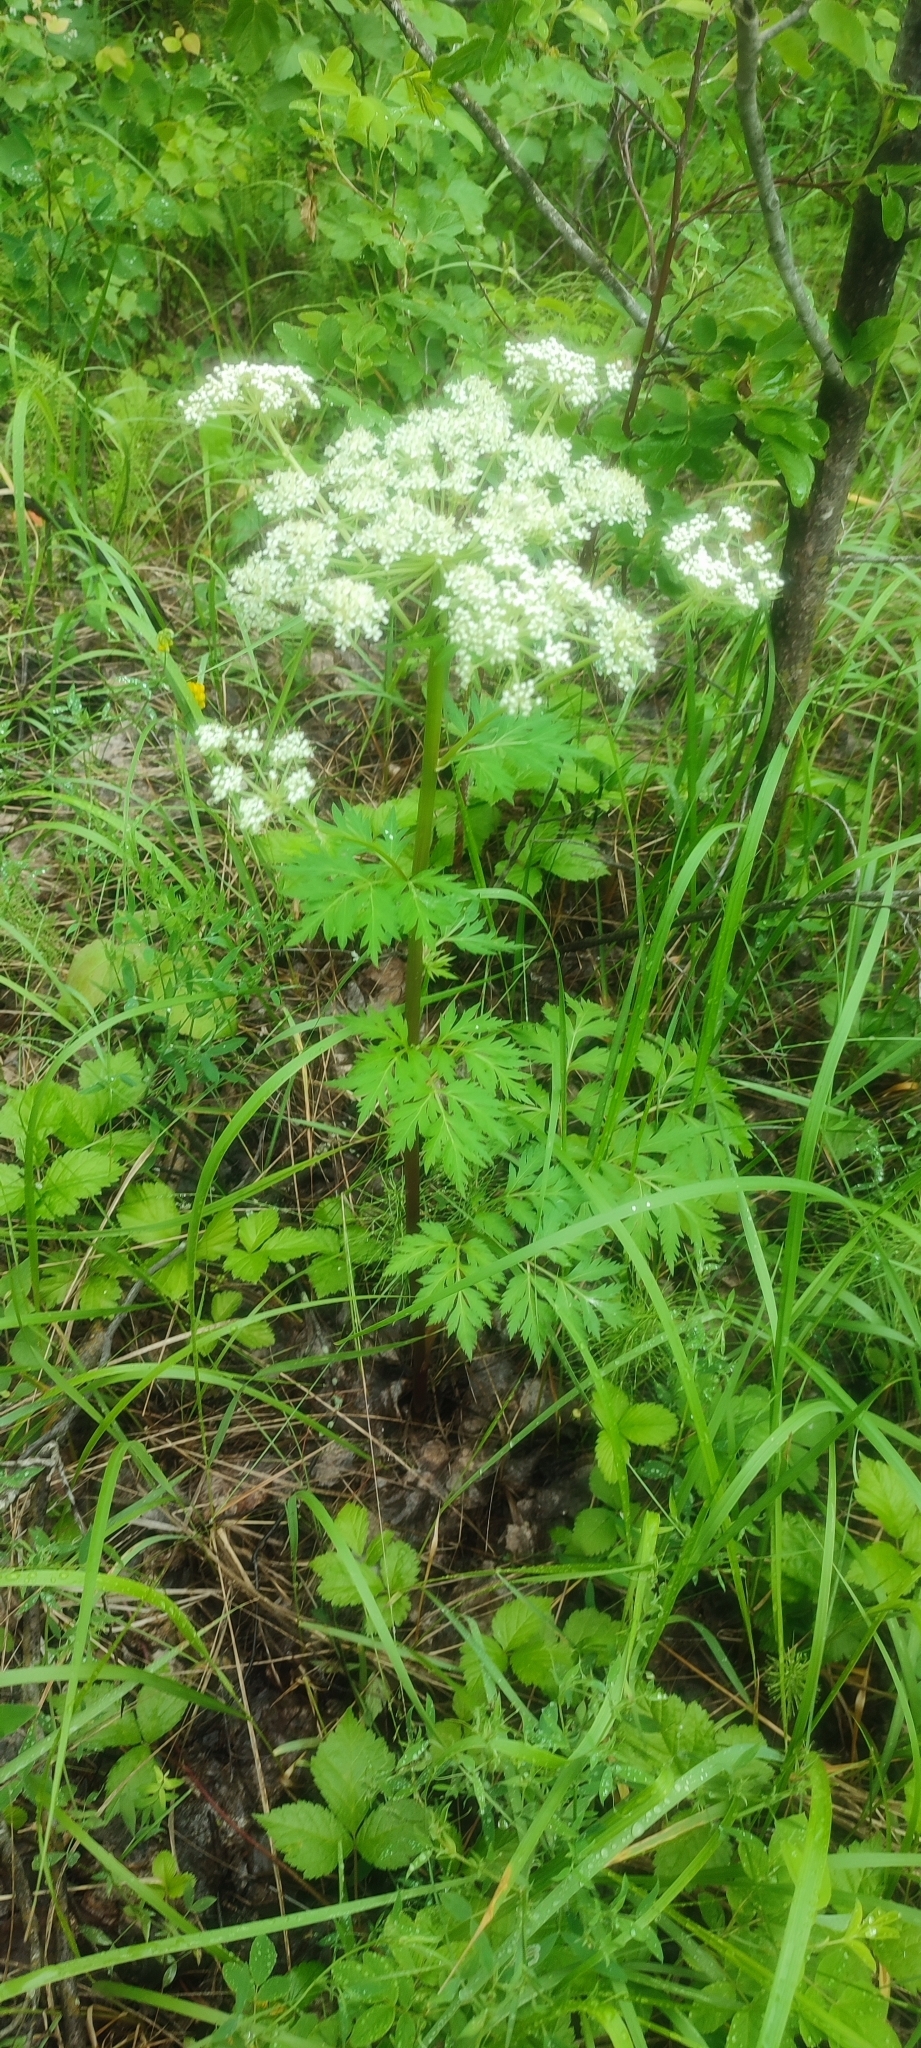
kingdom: Plantae
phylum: Tracheophyta
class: Magnoliopsida
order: Apiales
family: Apiaceae
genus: Pleurospermum
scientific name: Pleurospermum uralense
